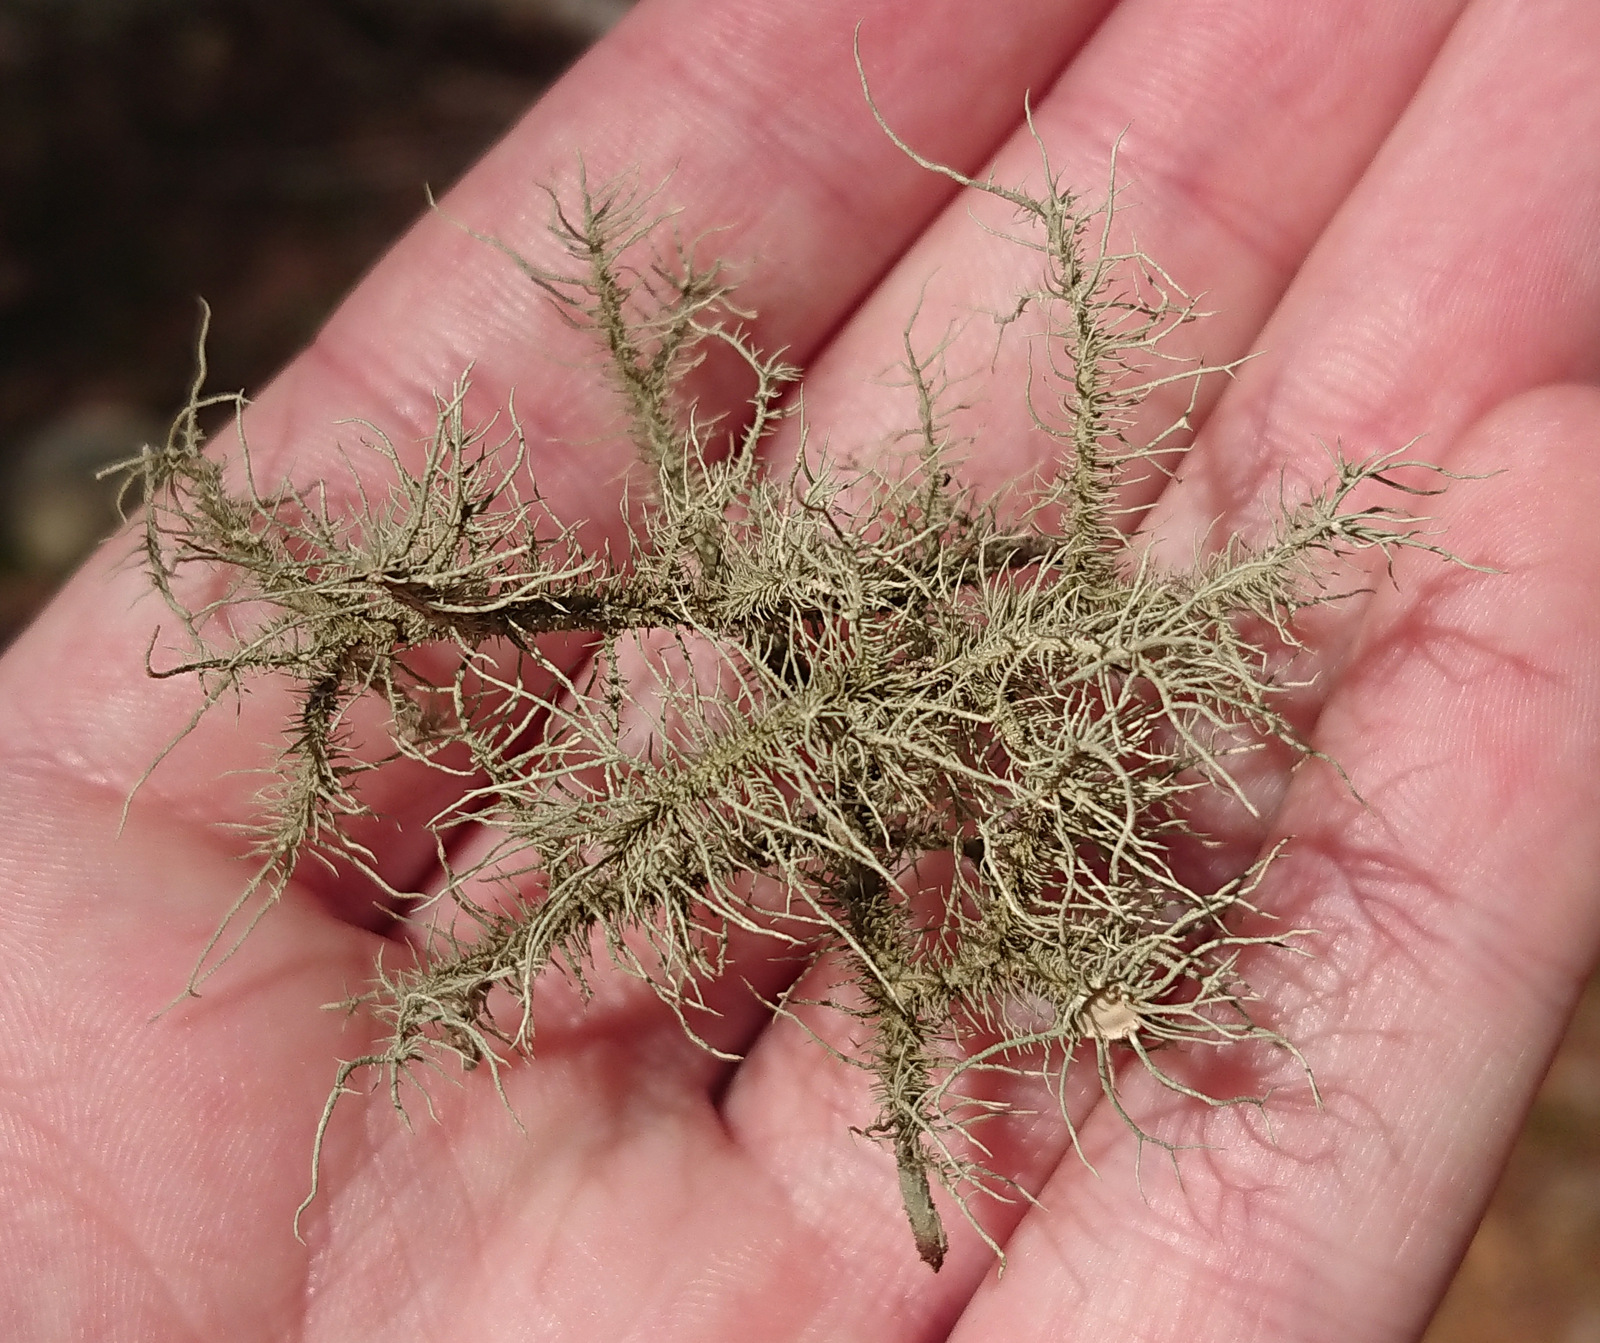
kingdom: Fungi
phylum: Ascomycota
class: Lecanoromycetes
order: Lecanorales
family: Parmeliaceae
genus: Usnea
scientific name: Usnea strigosa
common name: Bushy beard lichen
